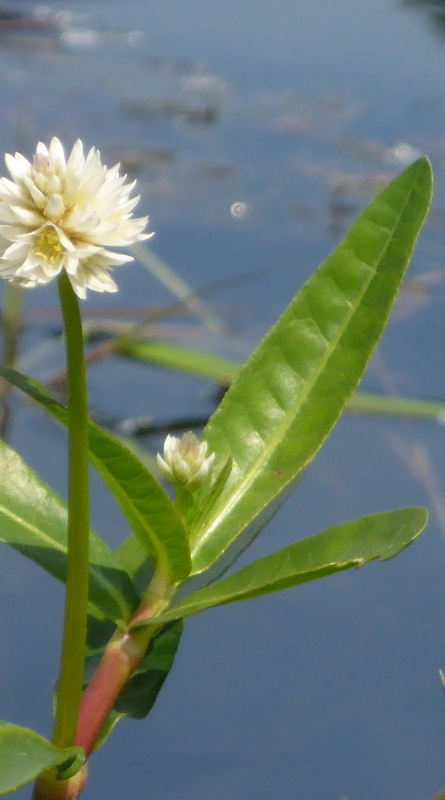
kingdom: Plantae
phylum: Tracheophyta
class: Magnoliopsida
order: Caryophyllales
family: Amaranthaceae
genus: Alternanthera
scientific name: Alternanthera philoxeroides
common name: Alligatorweed
